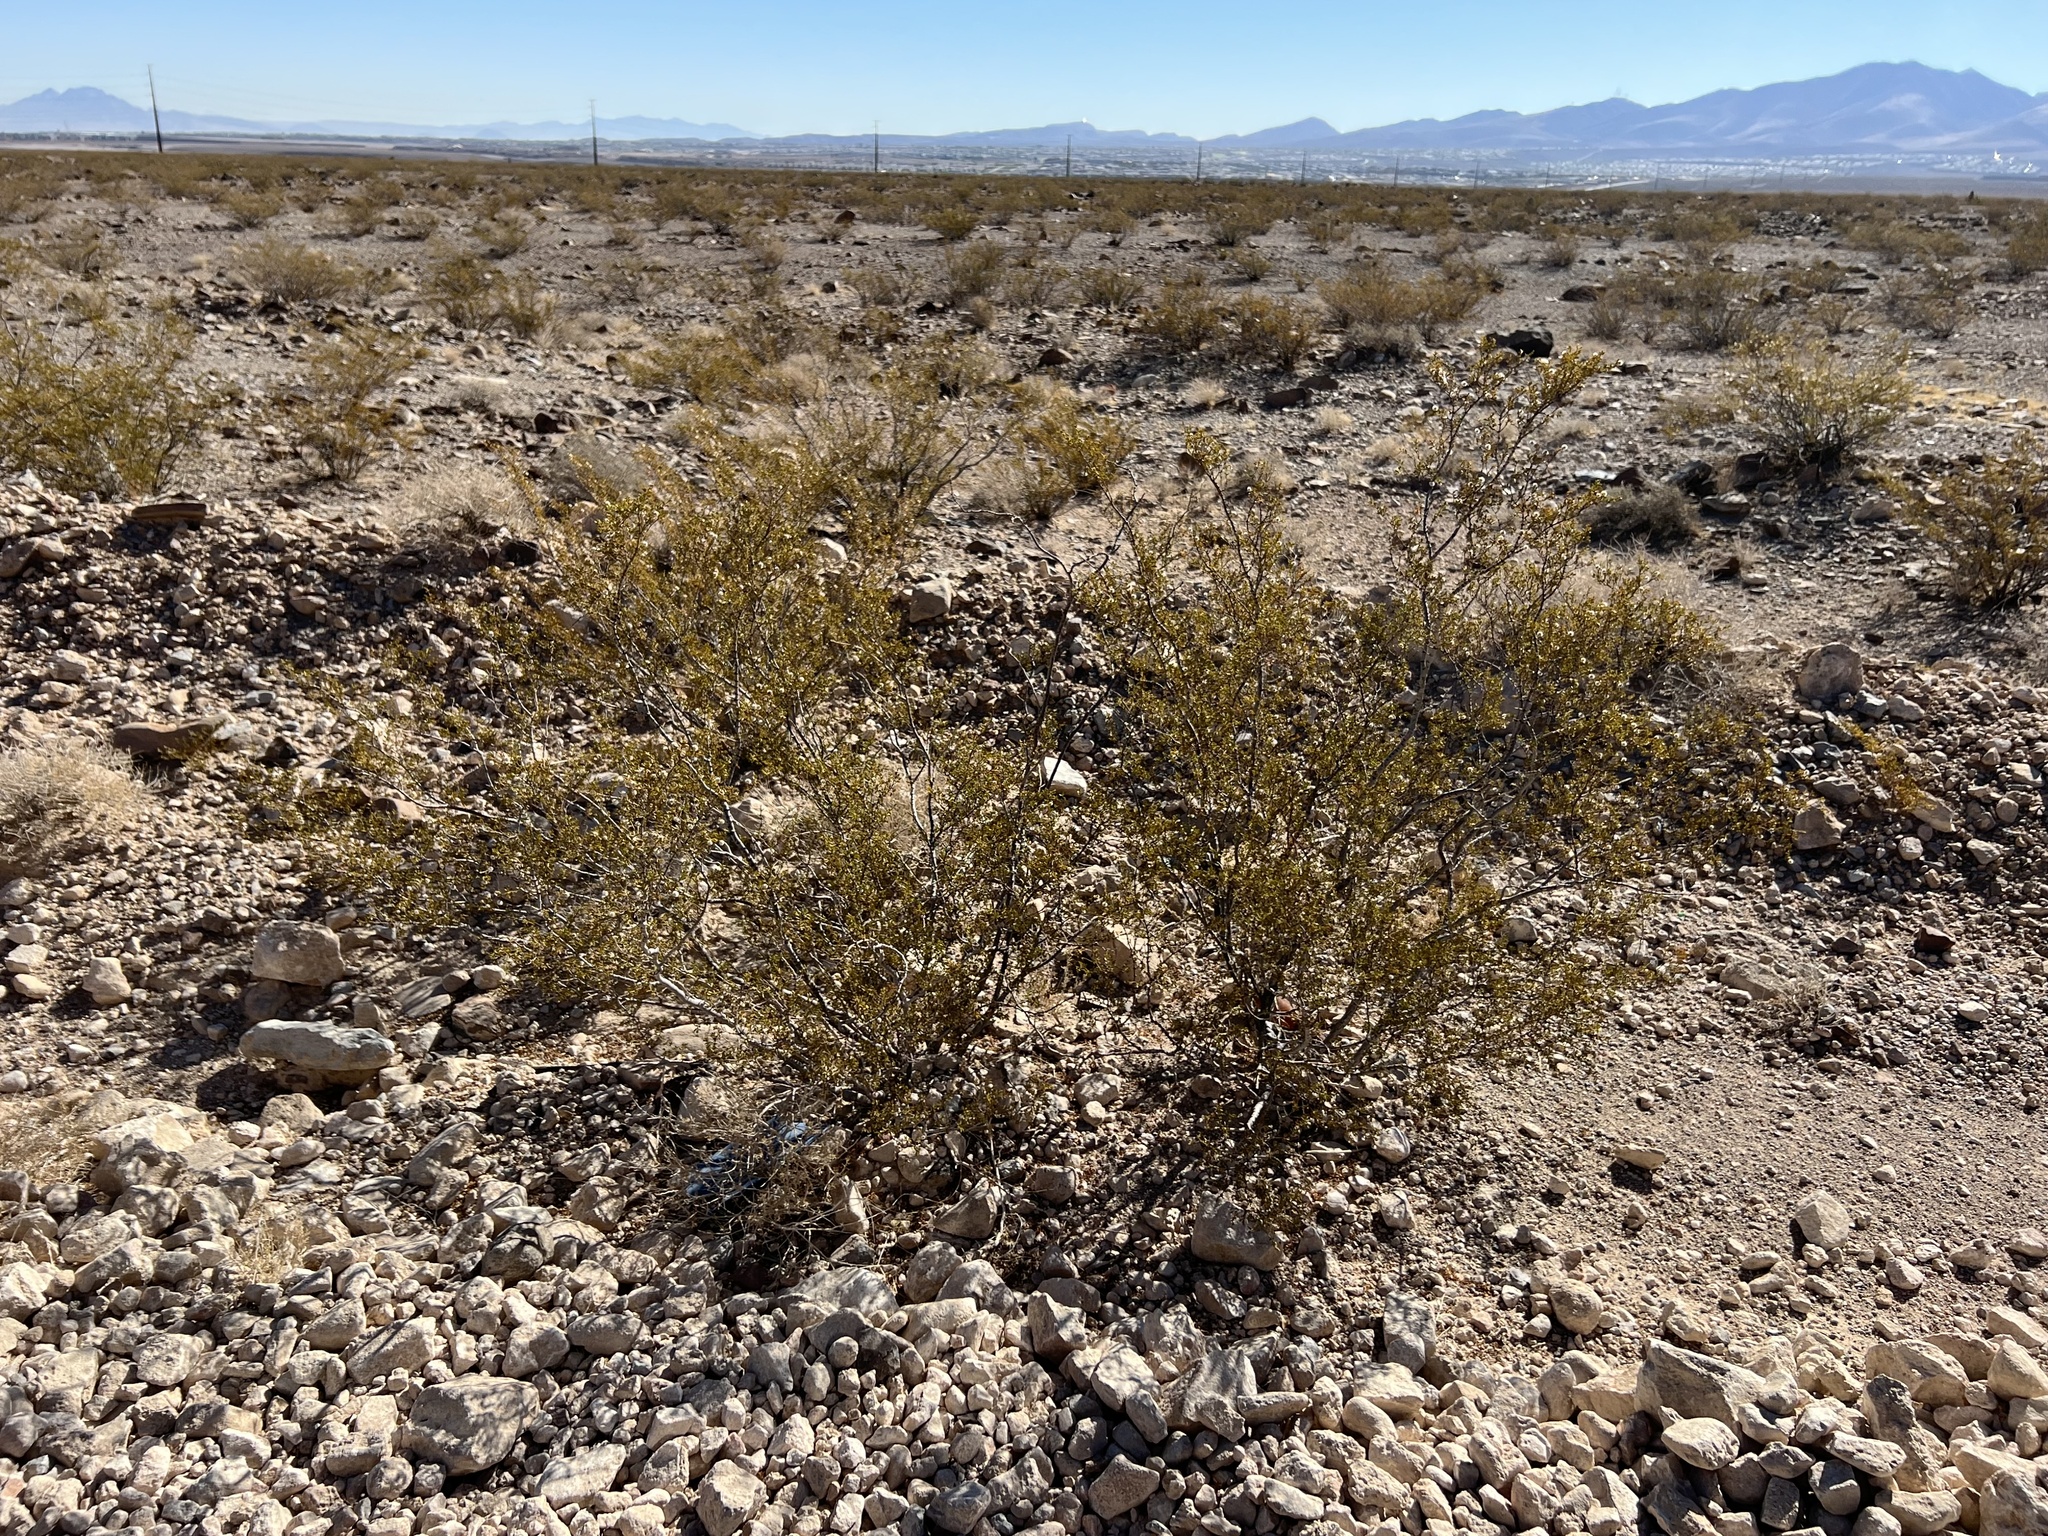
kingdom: Plantae
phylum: Tracheophyta
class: Magnoliopsida
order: Zygophyllales
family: Zygophyllaceae
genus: Larrea
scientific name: Larrea tridentata
